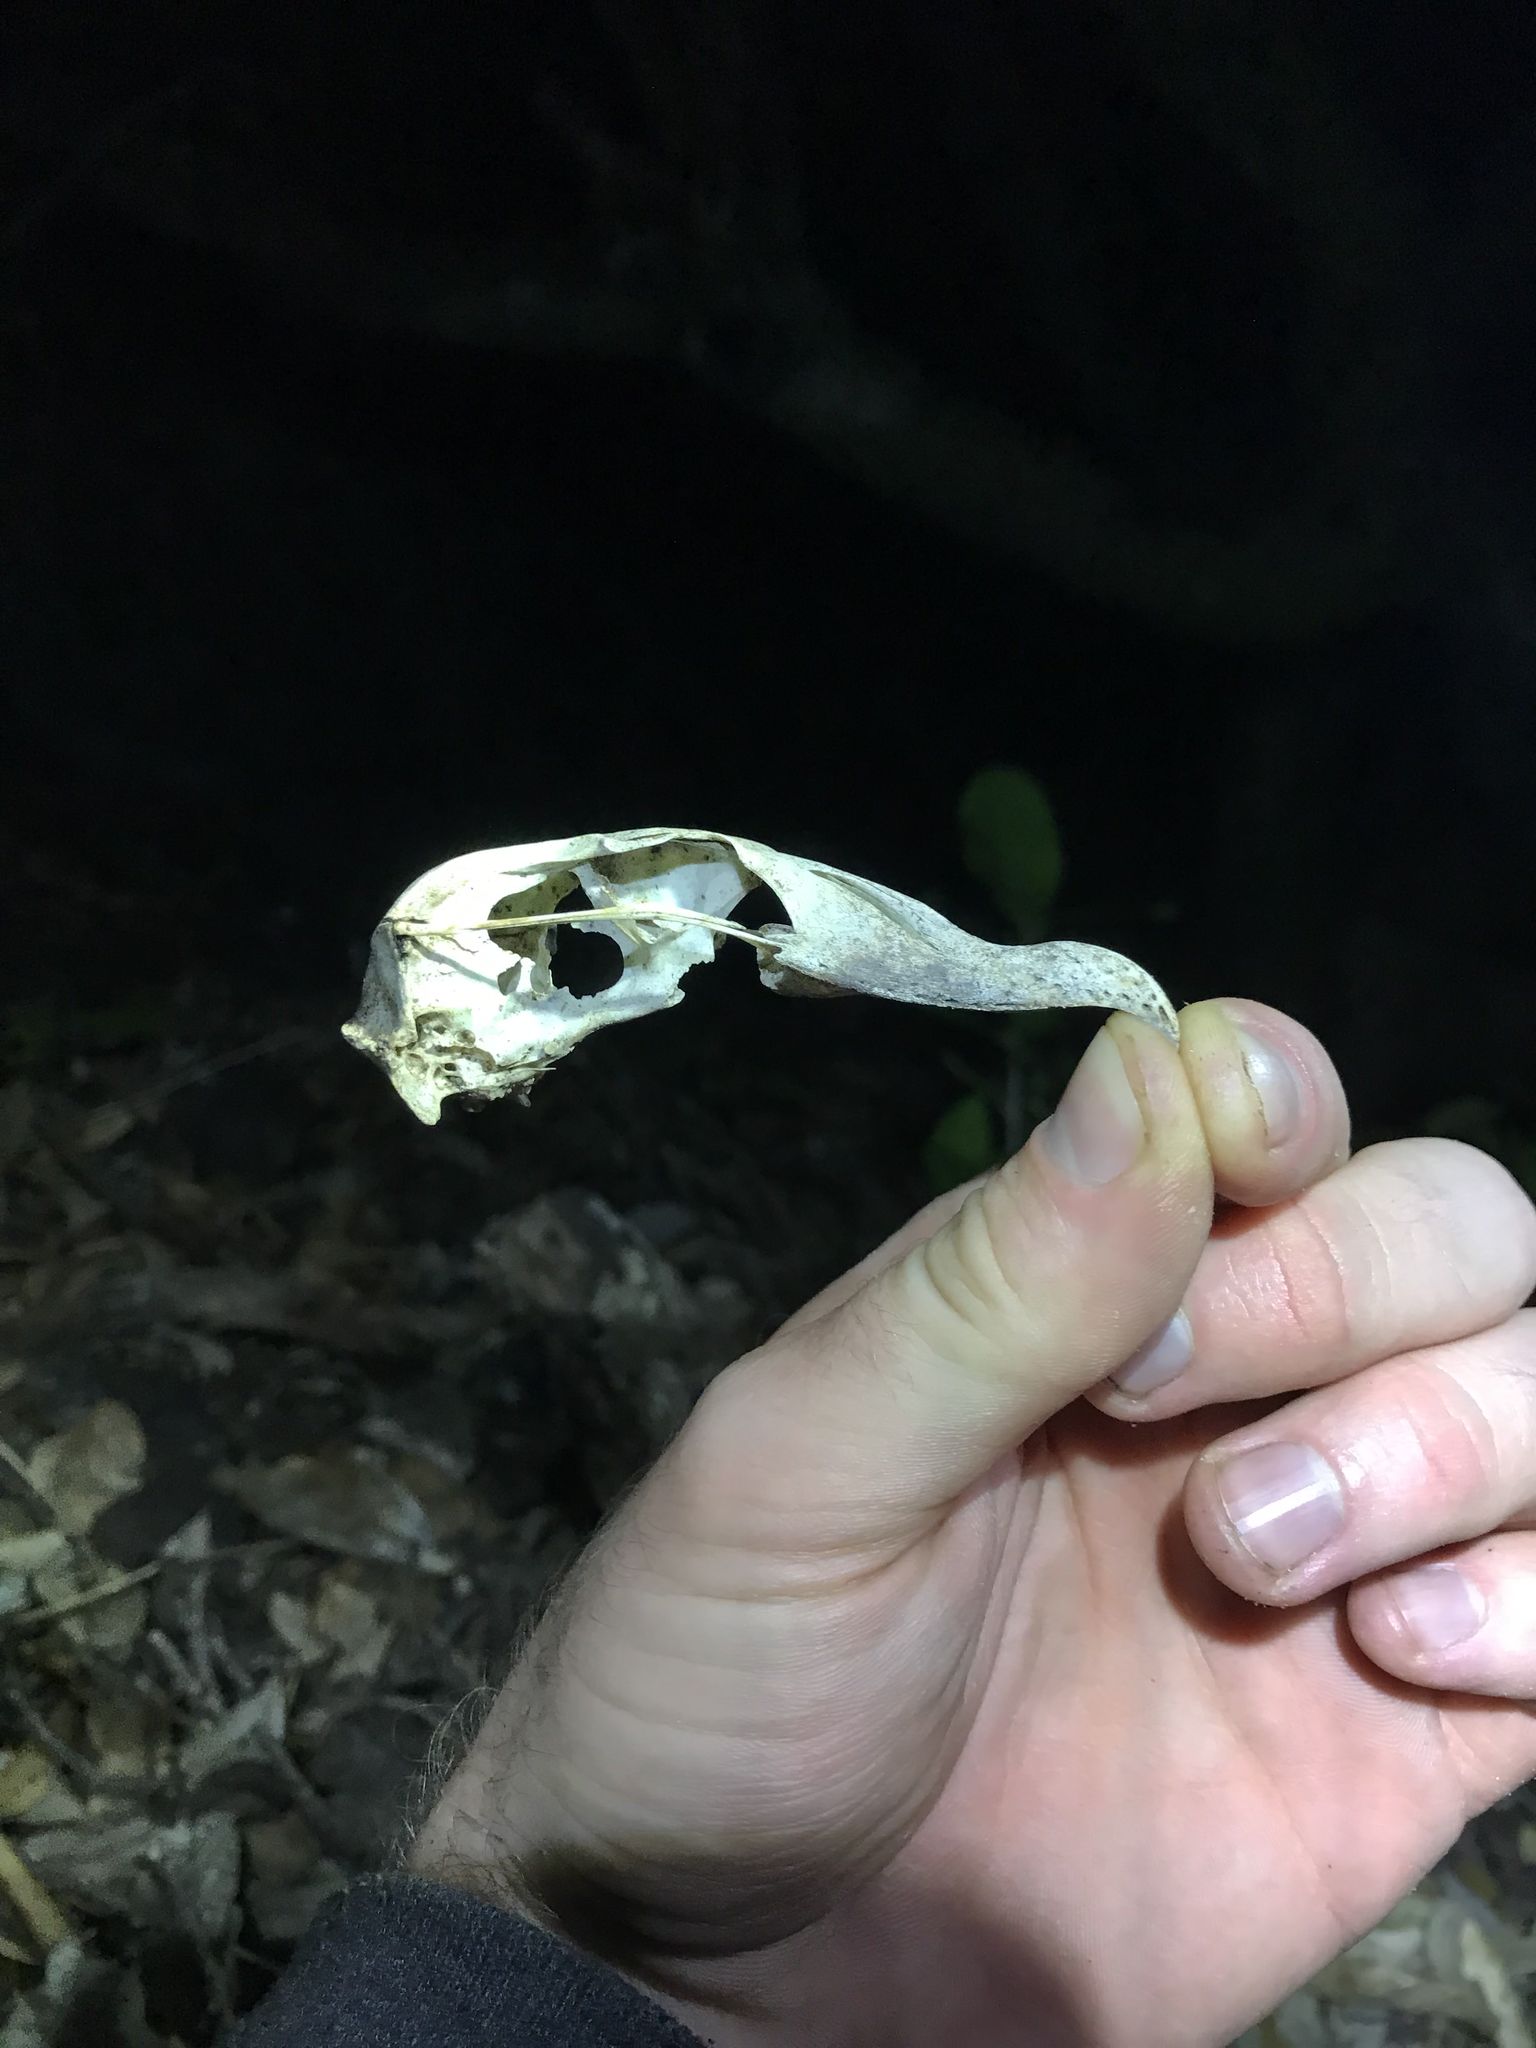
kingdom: Animalia
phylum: Chordata
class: Aves
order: Procellariiformes
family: Procellariidae
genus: Pterodroma
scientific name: Pterodroma
